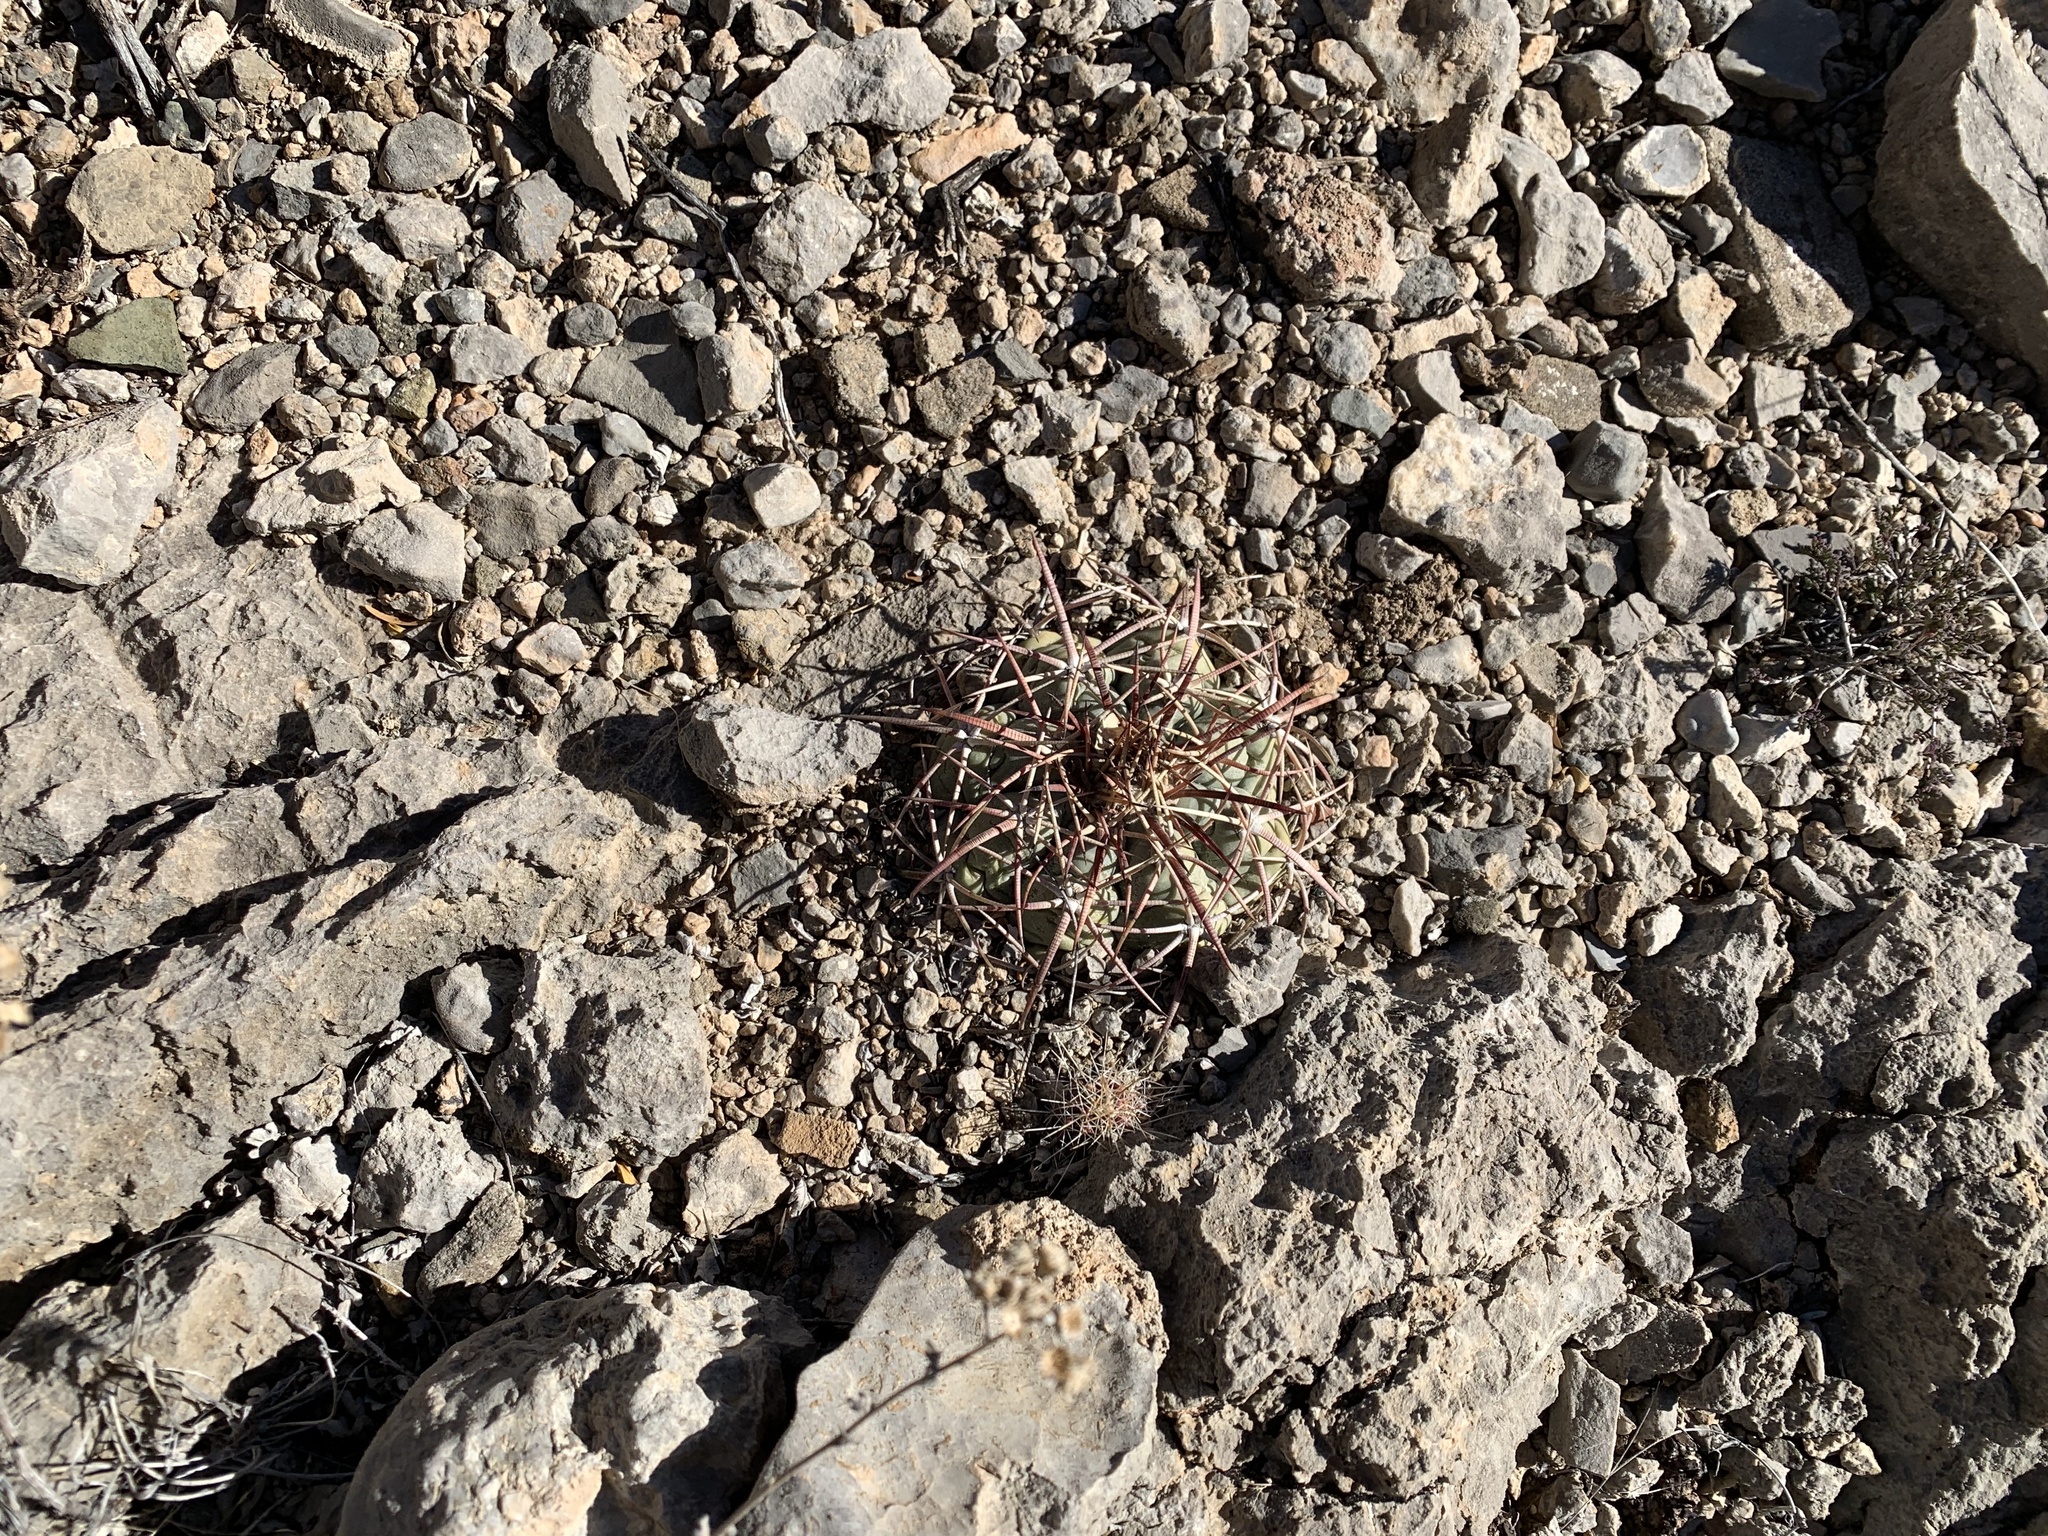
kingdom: Plantae
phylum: Tracheophyta
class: Magnoliopsida
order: Caryophyllales
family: Cactaceae
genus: Echinocactus
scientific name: Echinocactus horizonthalonius
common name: Devilshead
